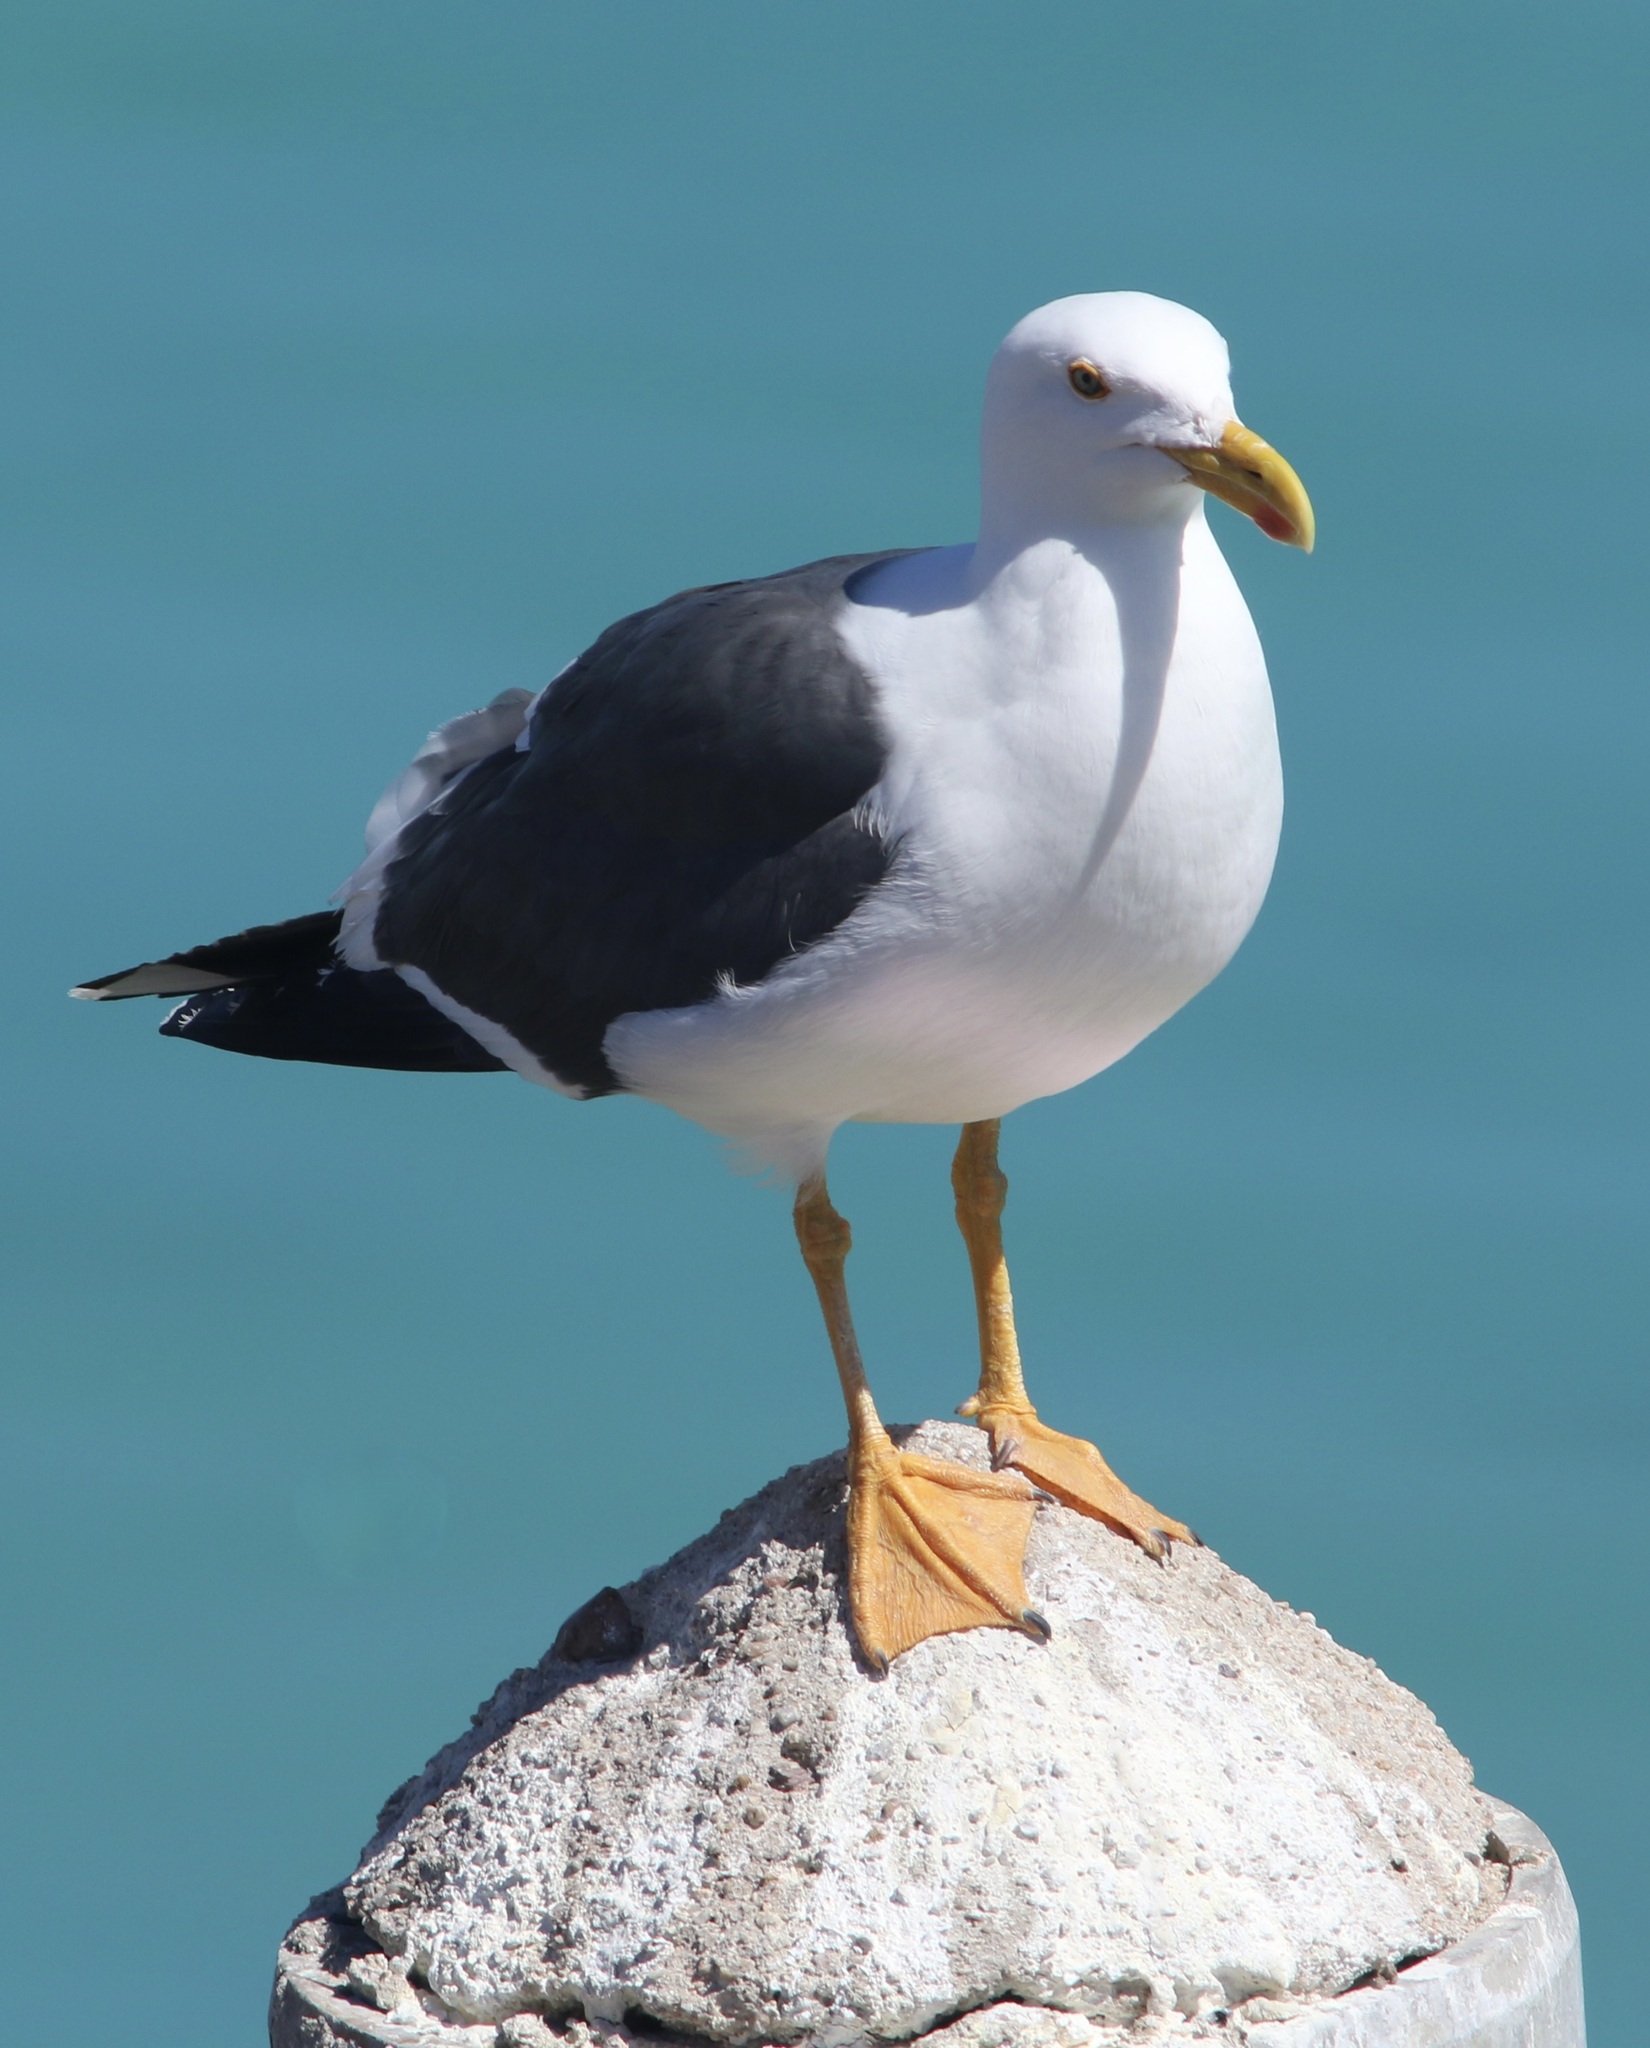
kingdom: Animalia
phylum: Chordata
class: Aves
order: Charadriiformes
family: Laridae
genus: Larus
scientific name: Larus livens
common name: Yellow-footed gull
